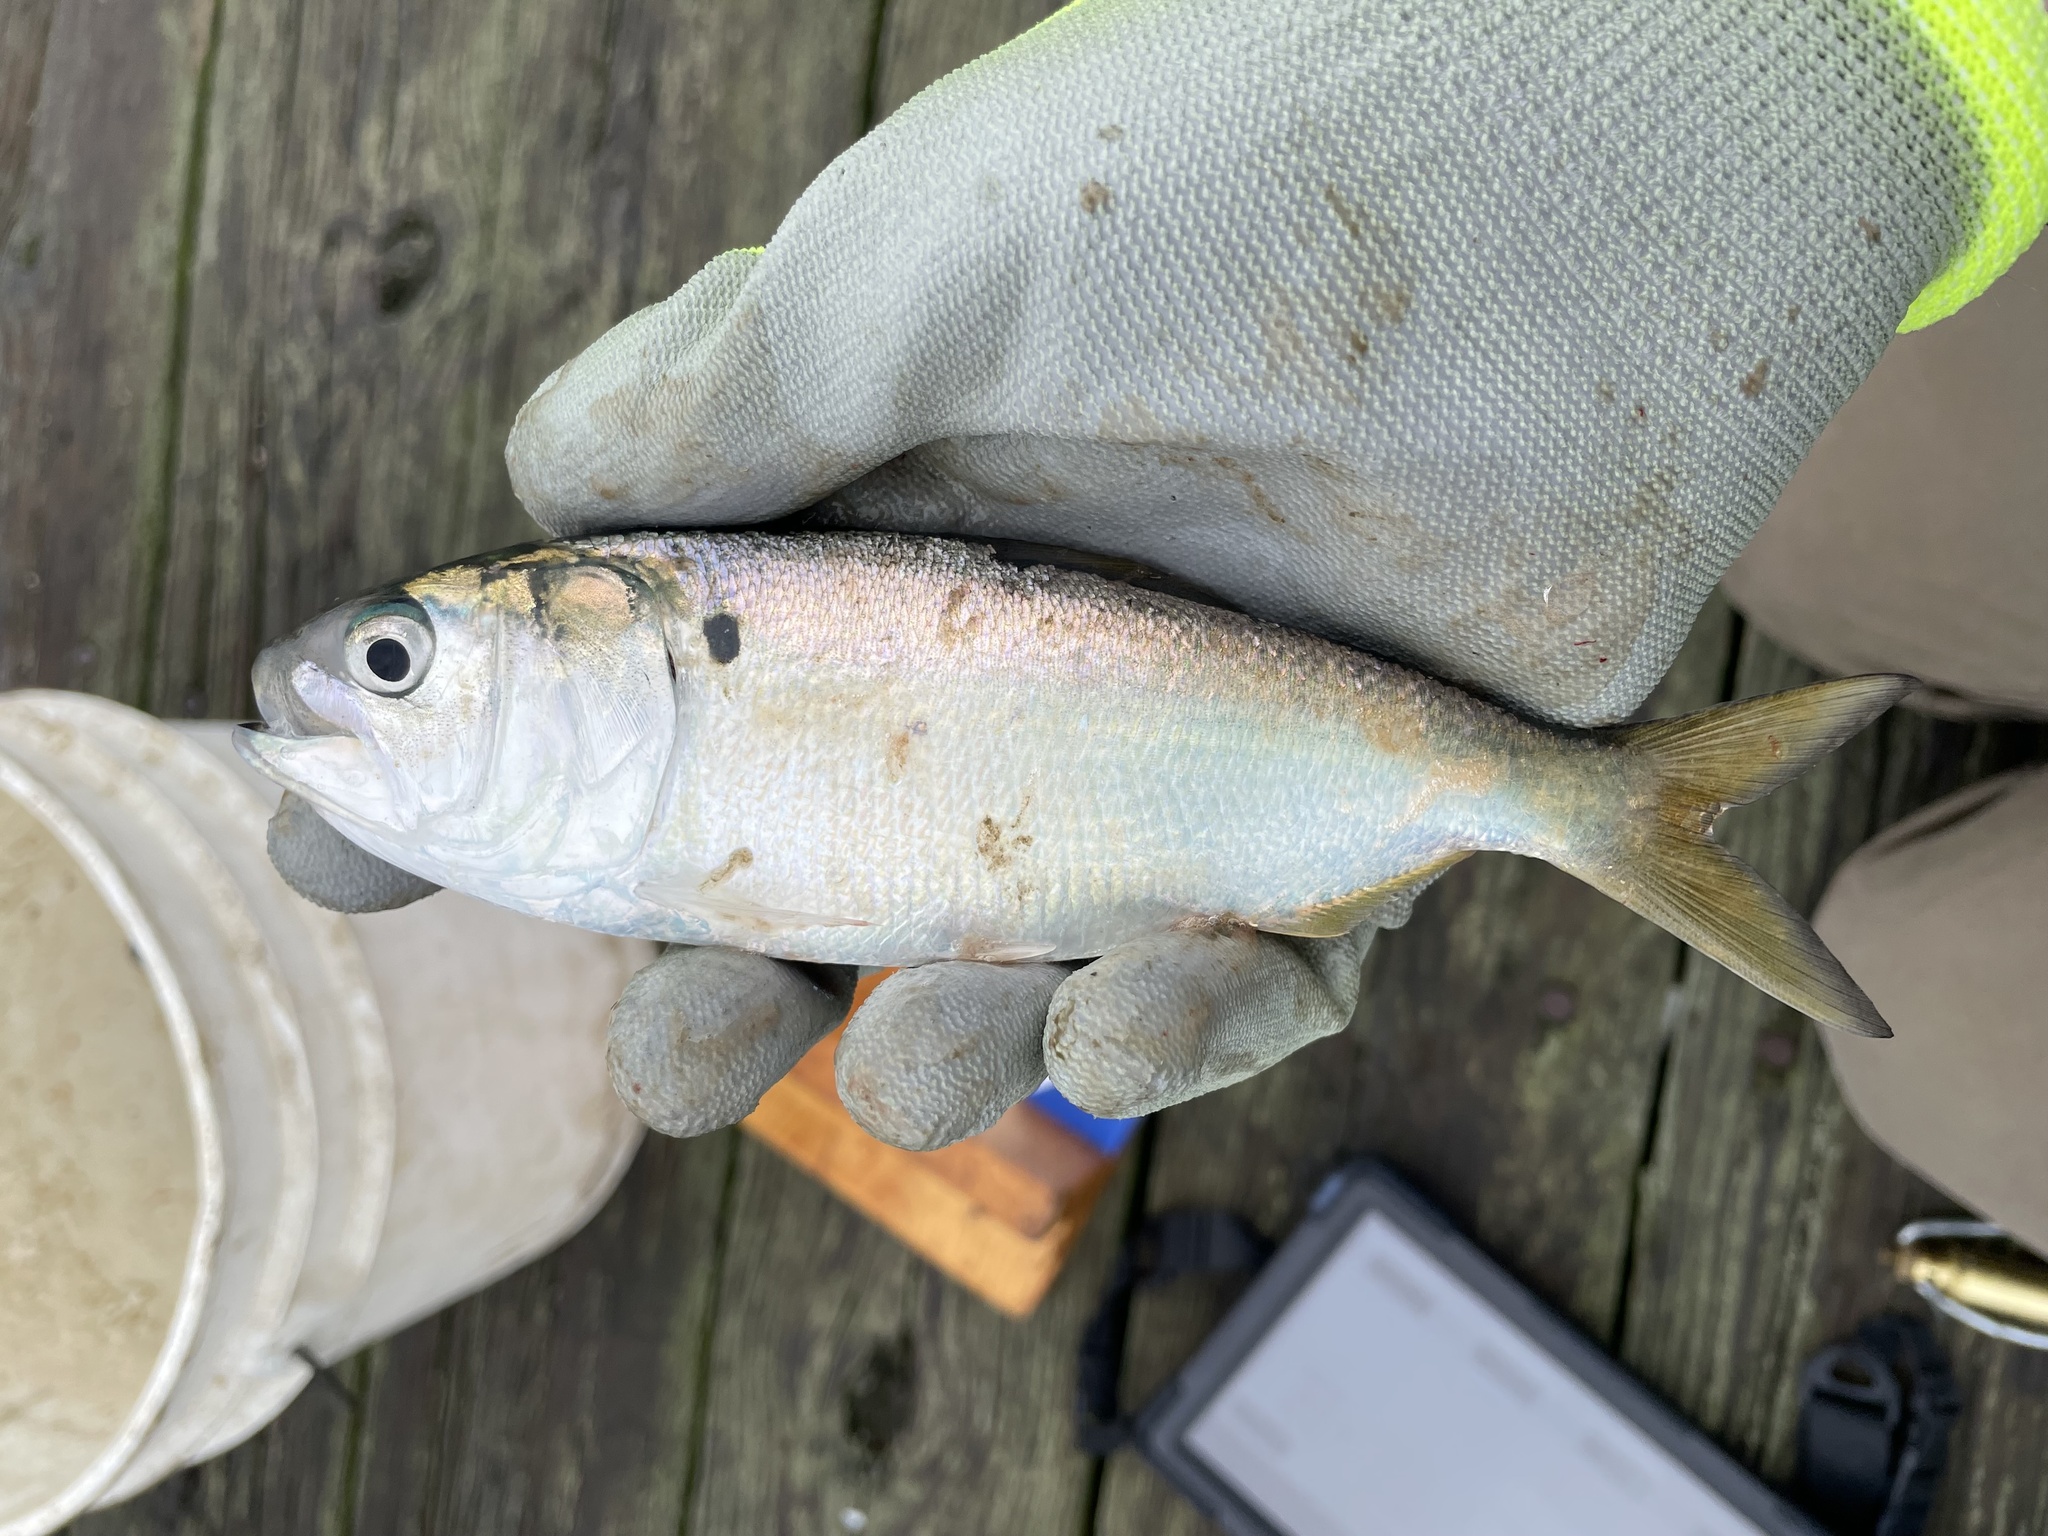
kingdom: Animalia
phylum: Chordata
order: Clupeiformes
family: Clupeidae
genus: Brevoortia
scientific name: Brevoortia tyrannus
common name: Atlantic menhaden
